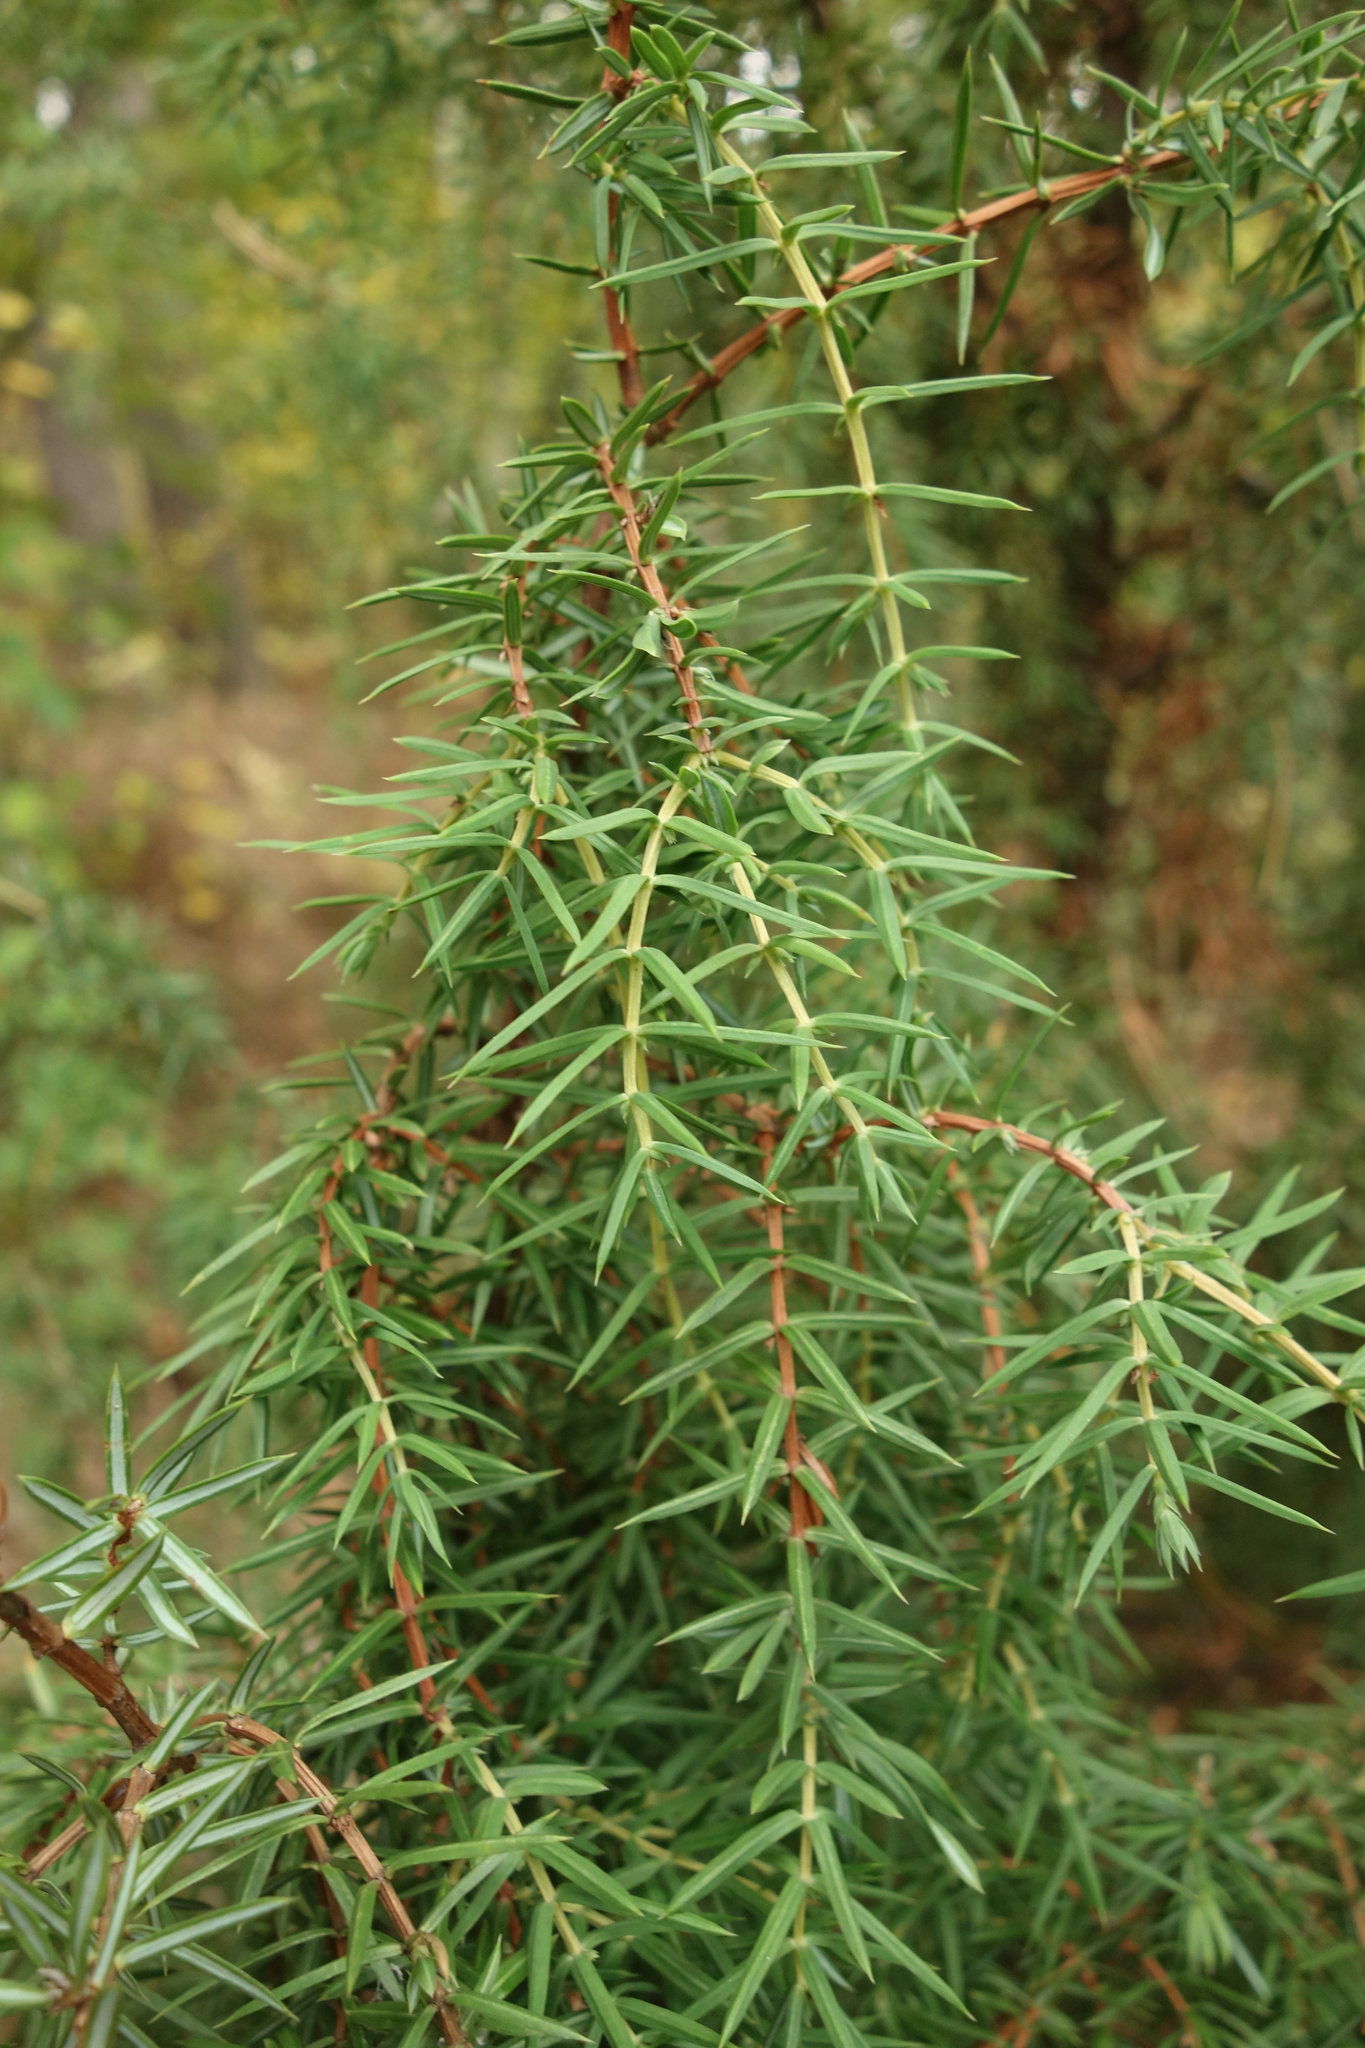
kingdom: Plantae
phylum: Tracheophyta
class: Pinopsida
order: Pinales
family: Cupressaceae
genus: Juniperus
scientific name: Juniperus communis
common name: Common juniper
